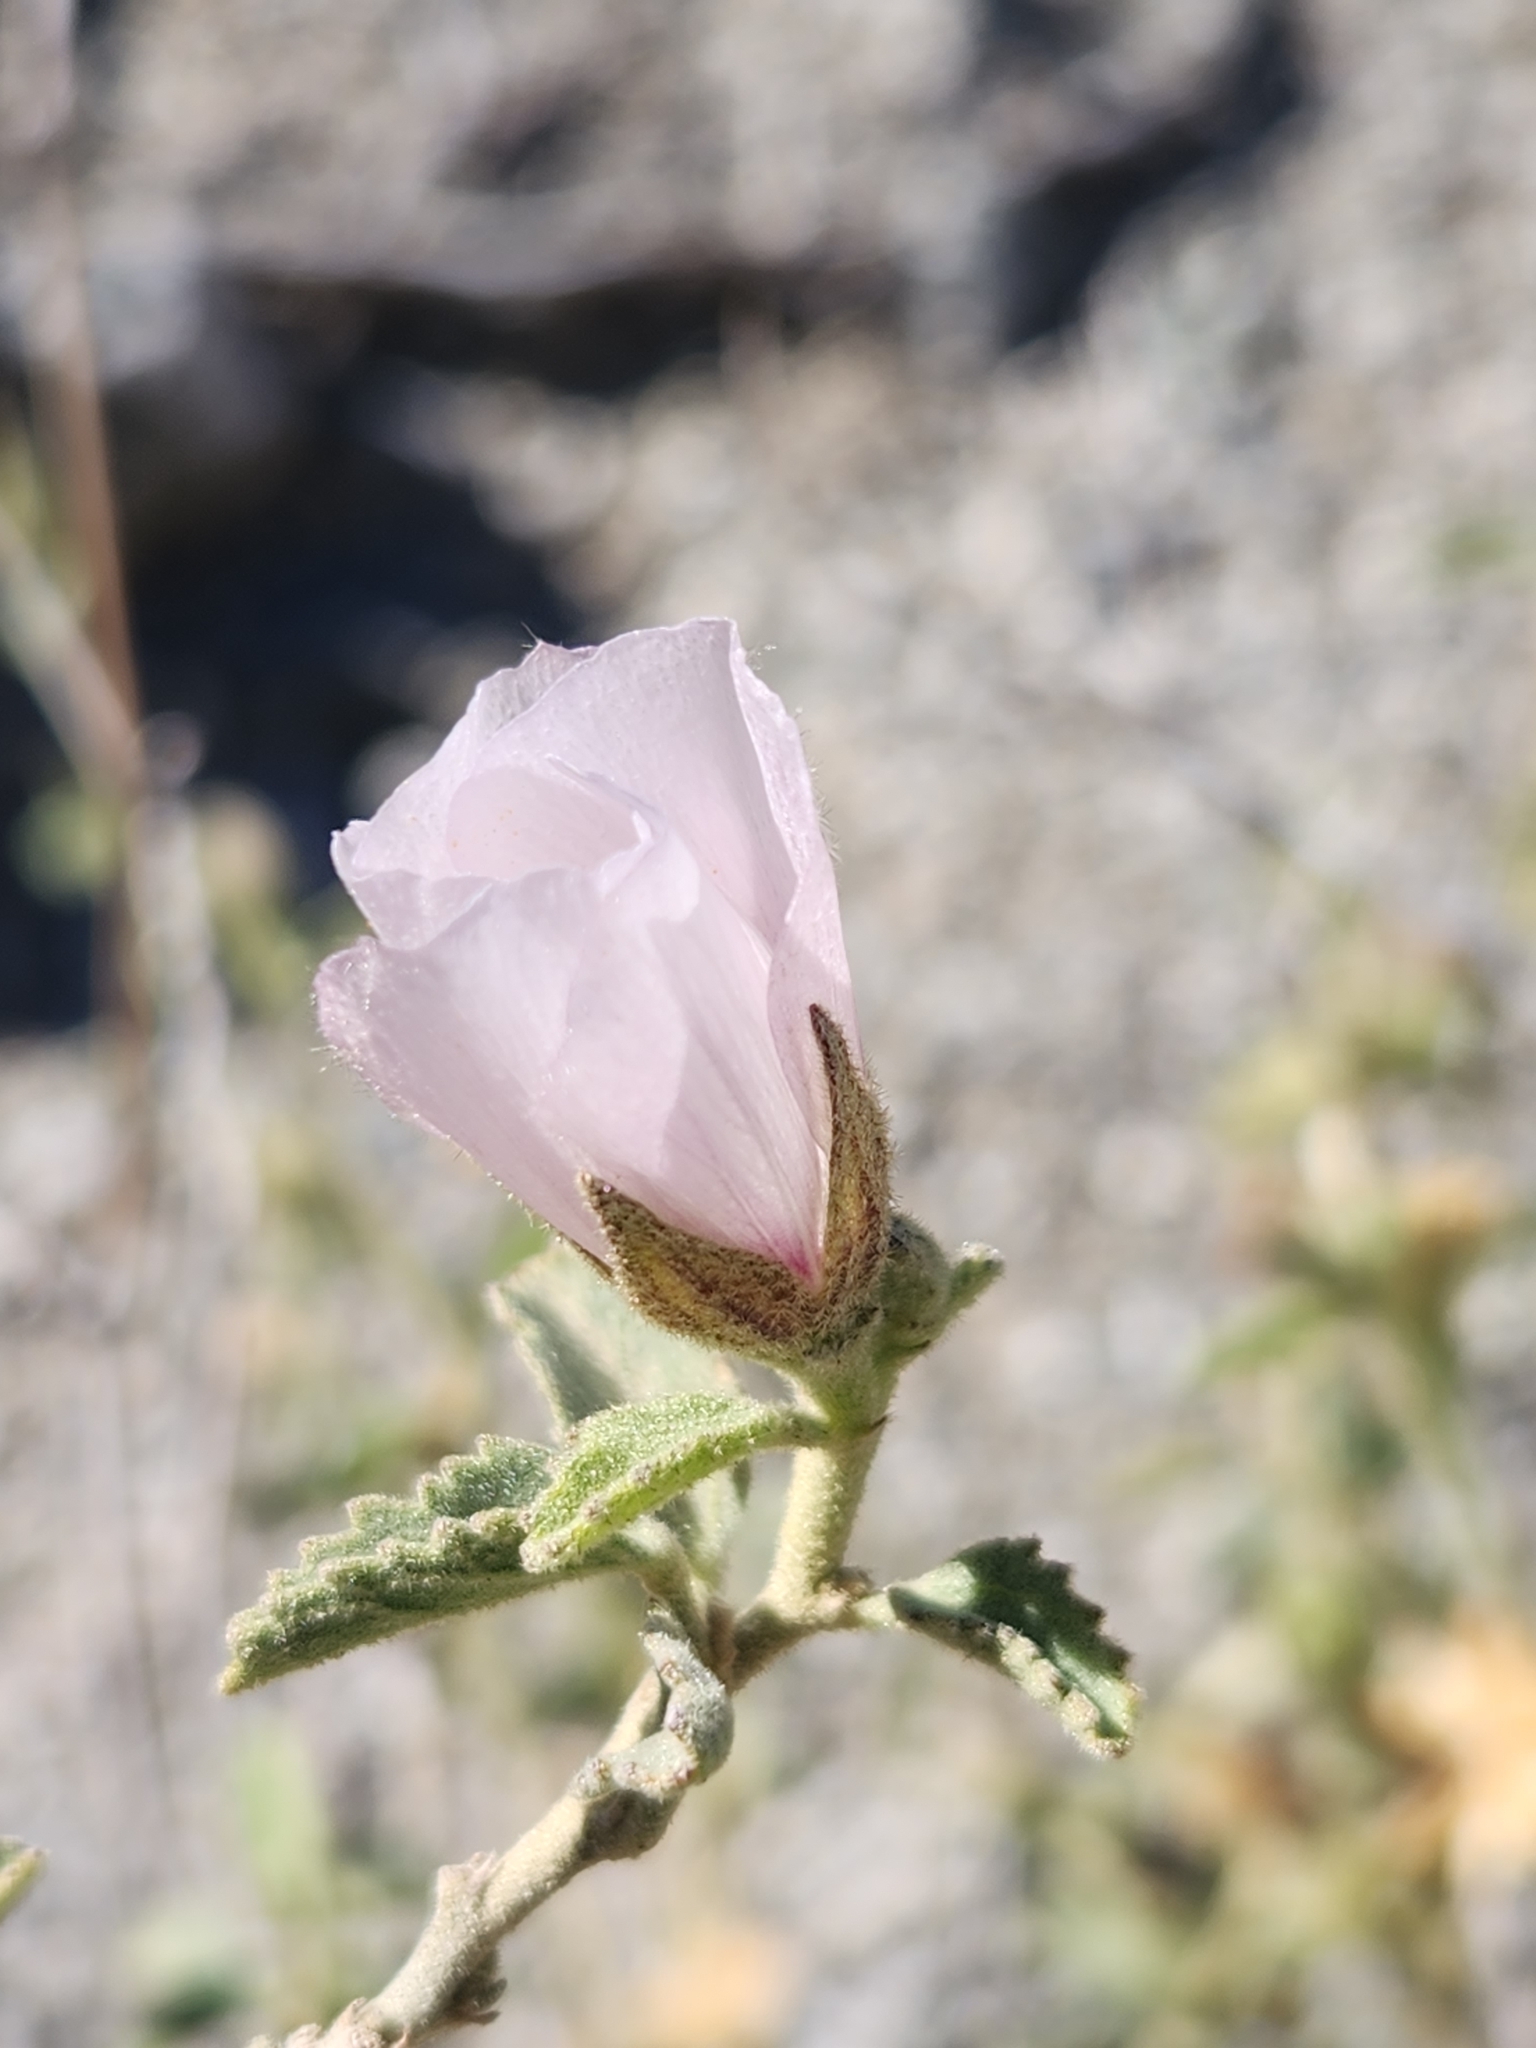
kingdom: Plantae
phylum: Tracheophyta
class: Magnoliopsida
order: Malvales
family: Malvaceae
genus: Hibiscus
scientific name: Hibiscus denudatus
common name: Paleface
